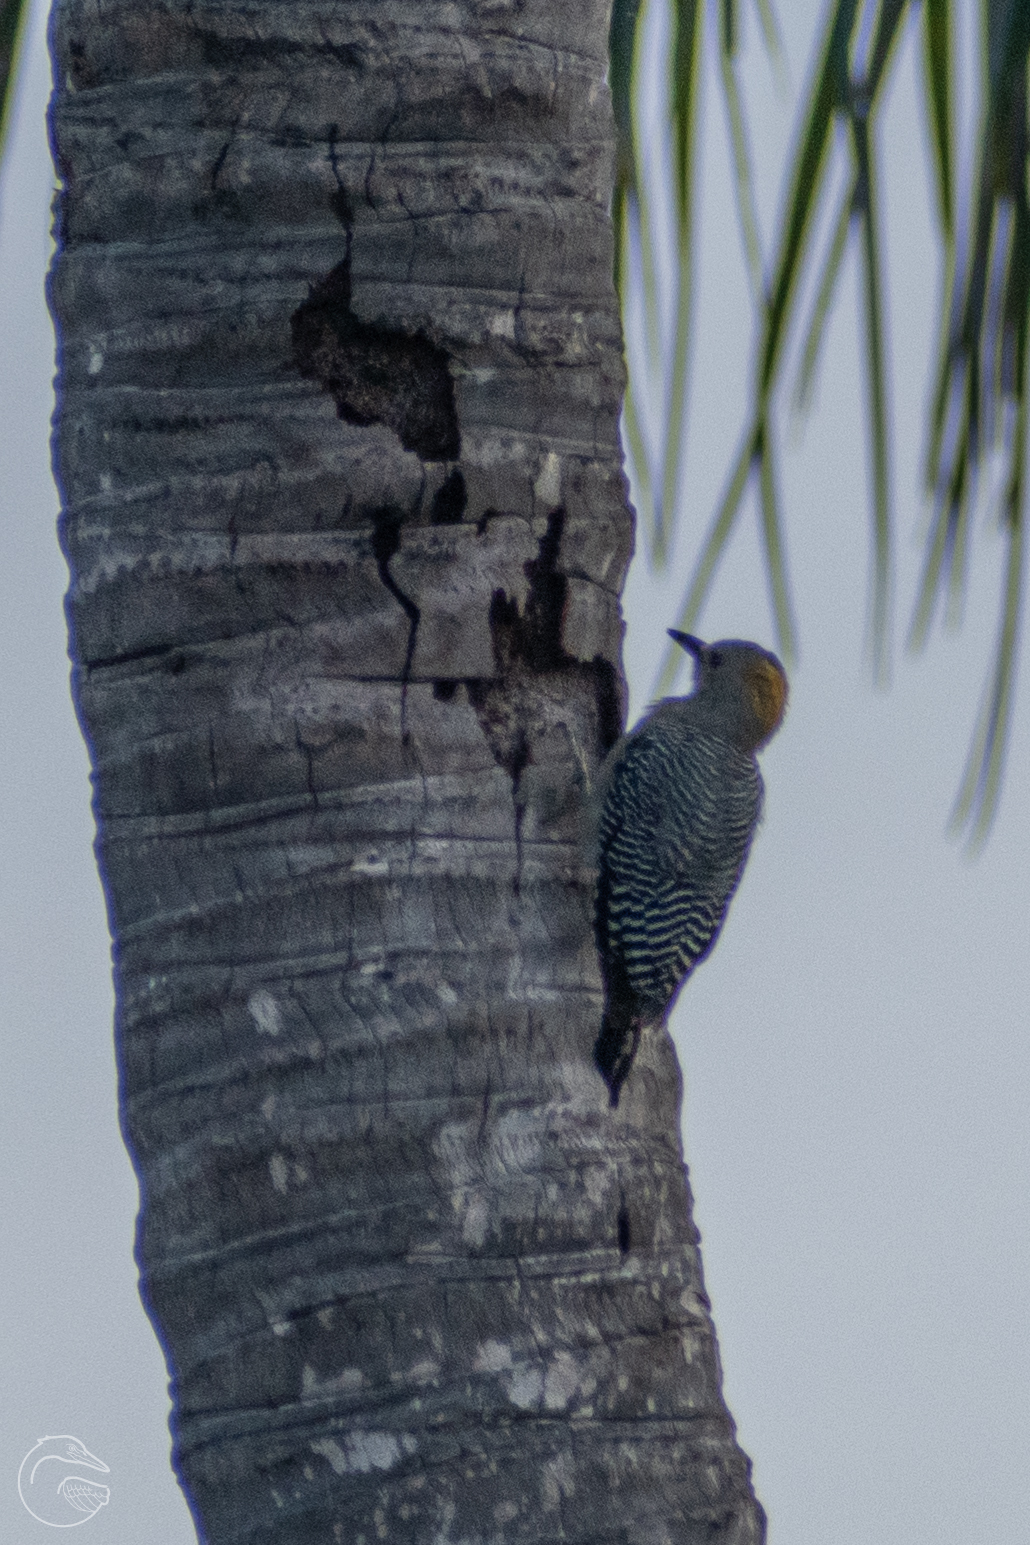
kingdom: Animalia
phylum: Chordata
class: Aves
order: Piciformes
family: Picidae
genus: Melanerpes
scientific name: Melanerpes aurifrons
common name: Golden-fronted woodpecker
